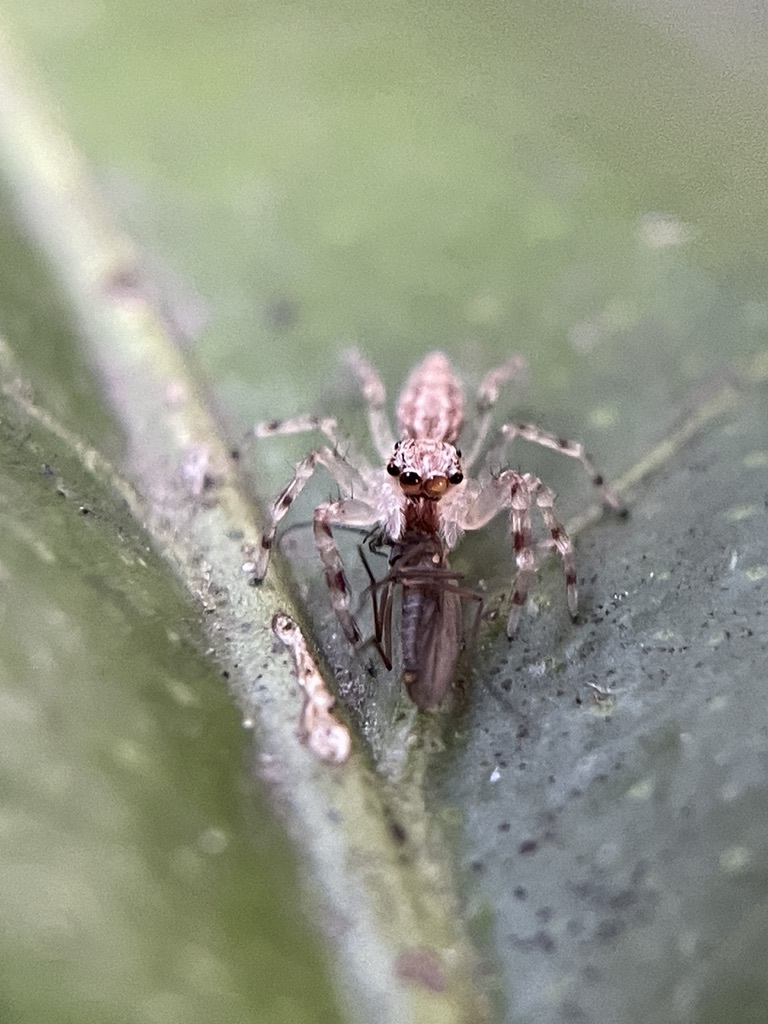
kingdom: Animalia
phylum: Arthropoda
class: Arachnida
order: Araneae
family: Salticidae
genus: Helpis
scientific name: Helpis minitabunda
